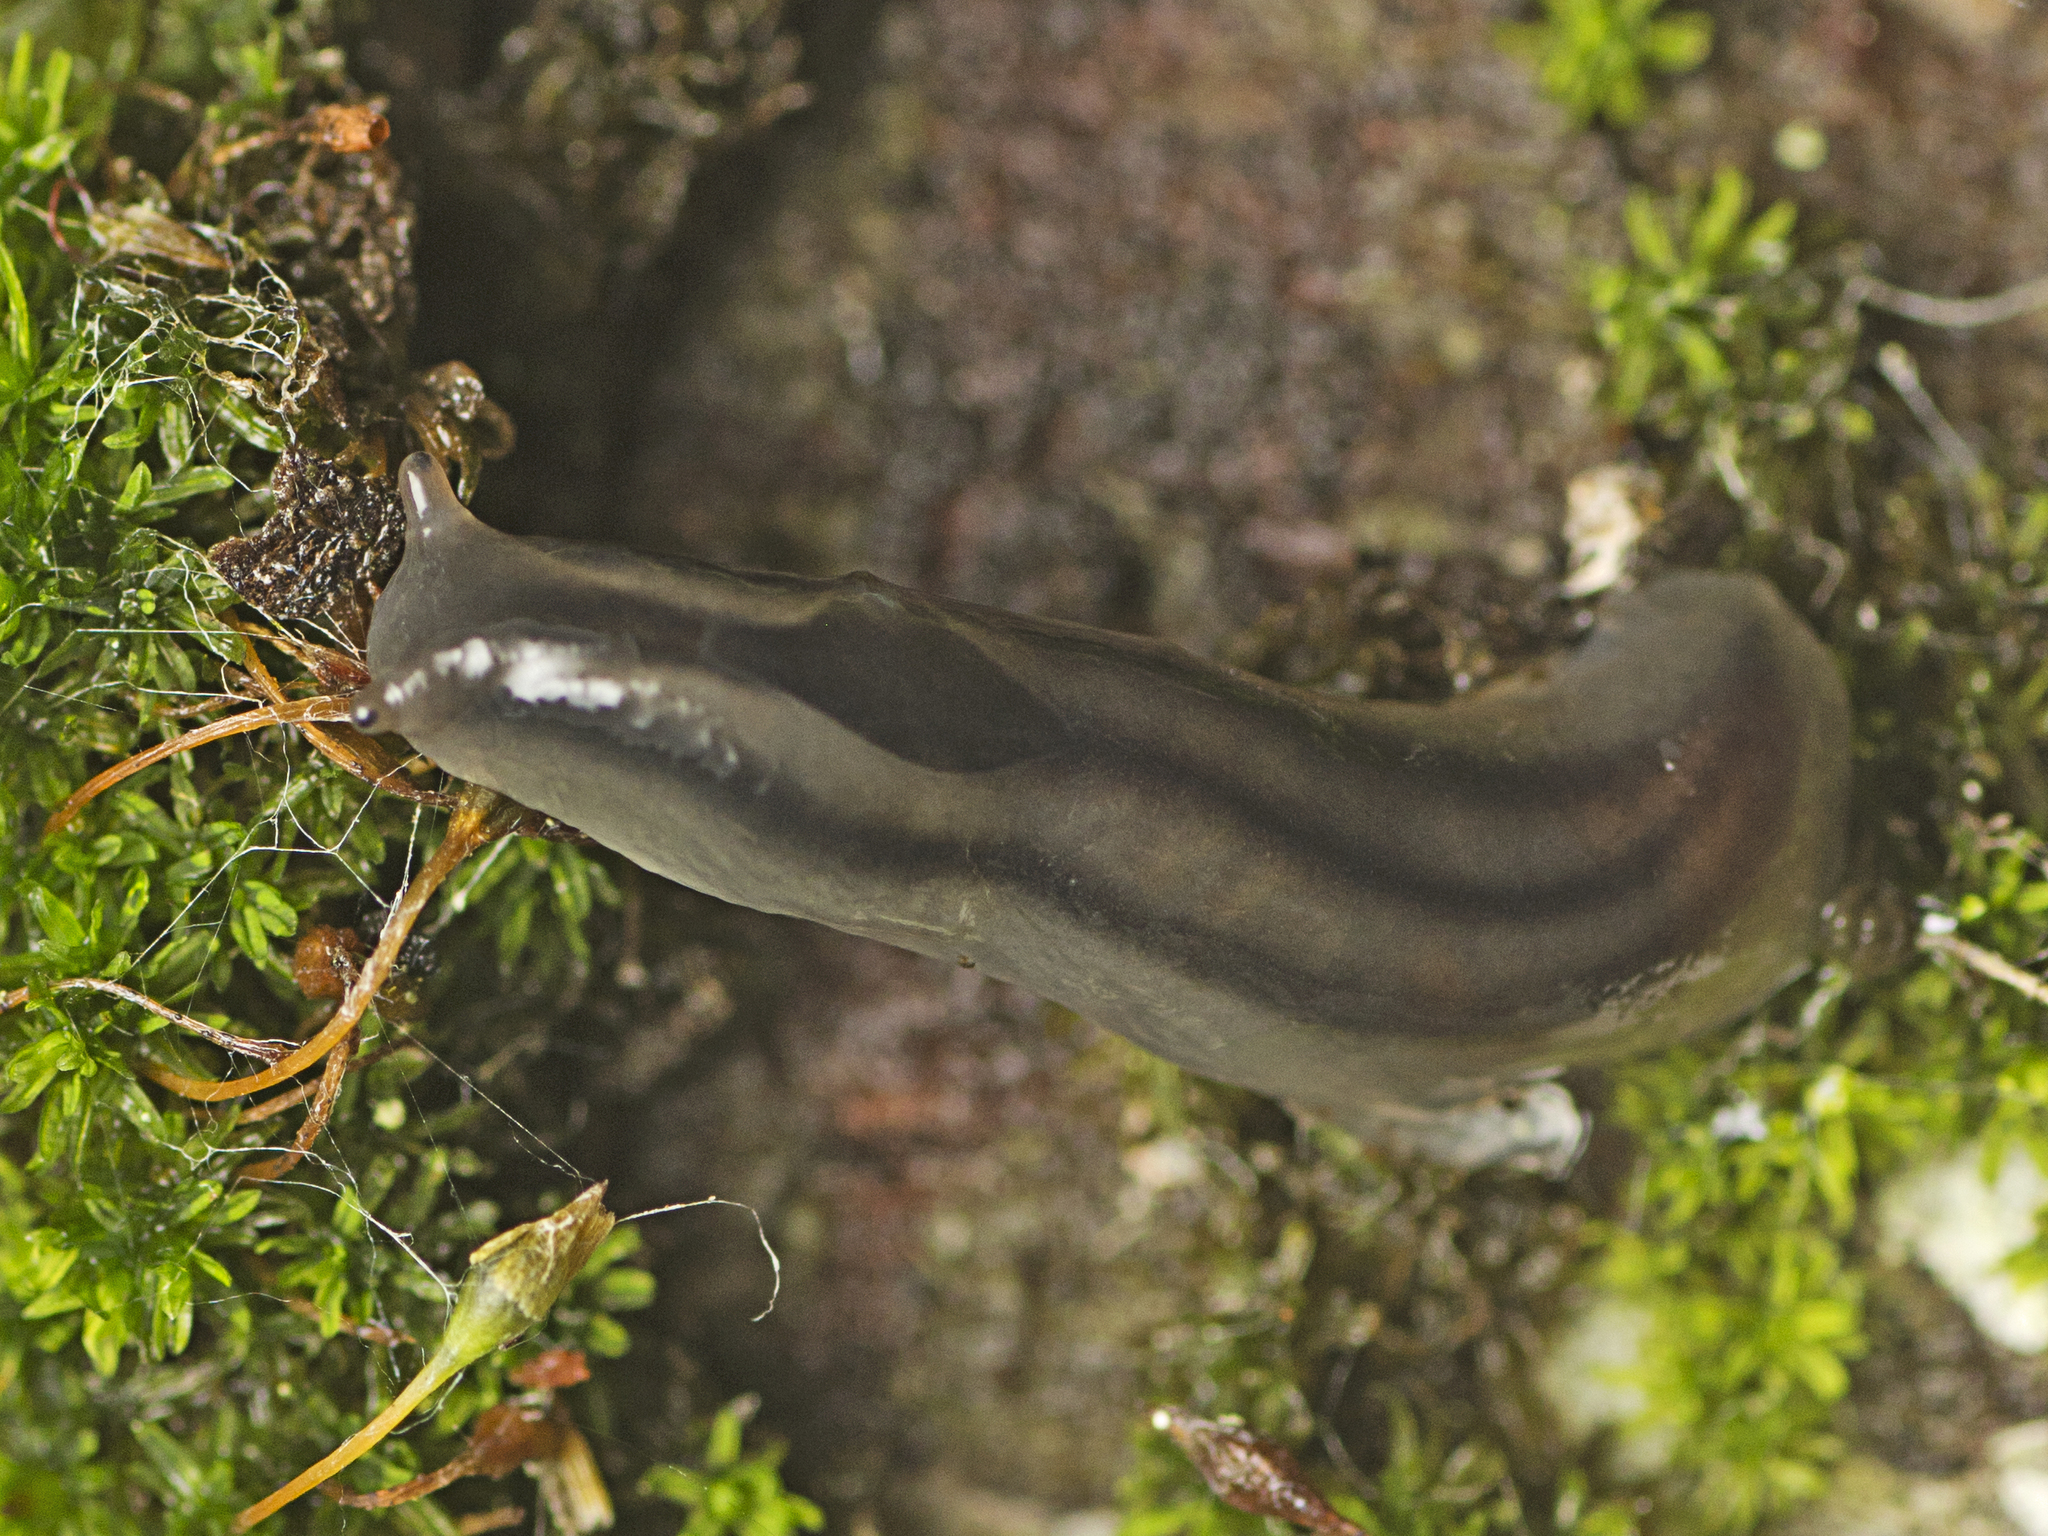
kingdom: Animalia
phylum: Mollusca
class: Gastropoda
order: Stylommatophora
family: Athoracophoridae
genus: Triboniophorus
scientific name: Triboniophorus graeffei
